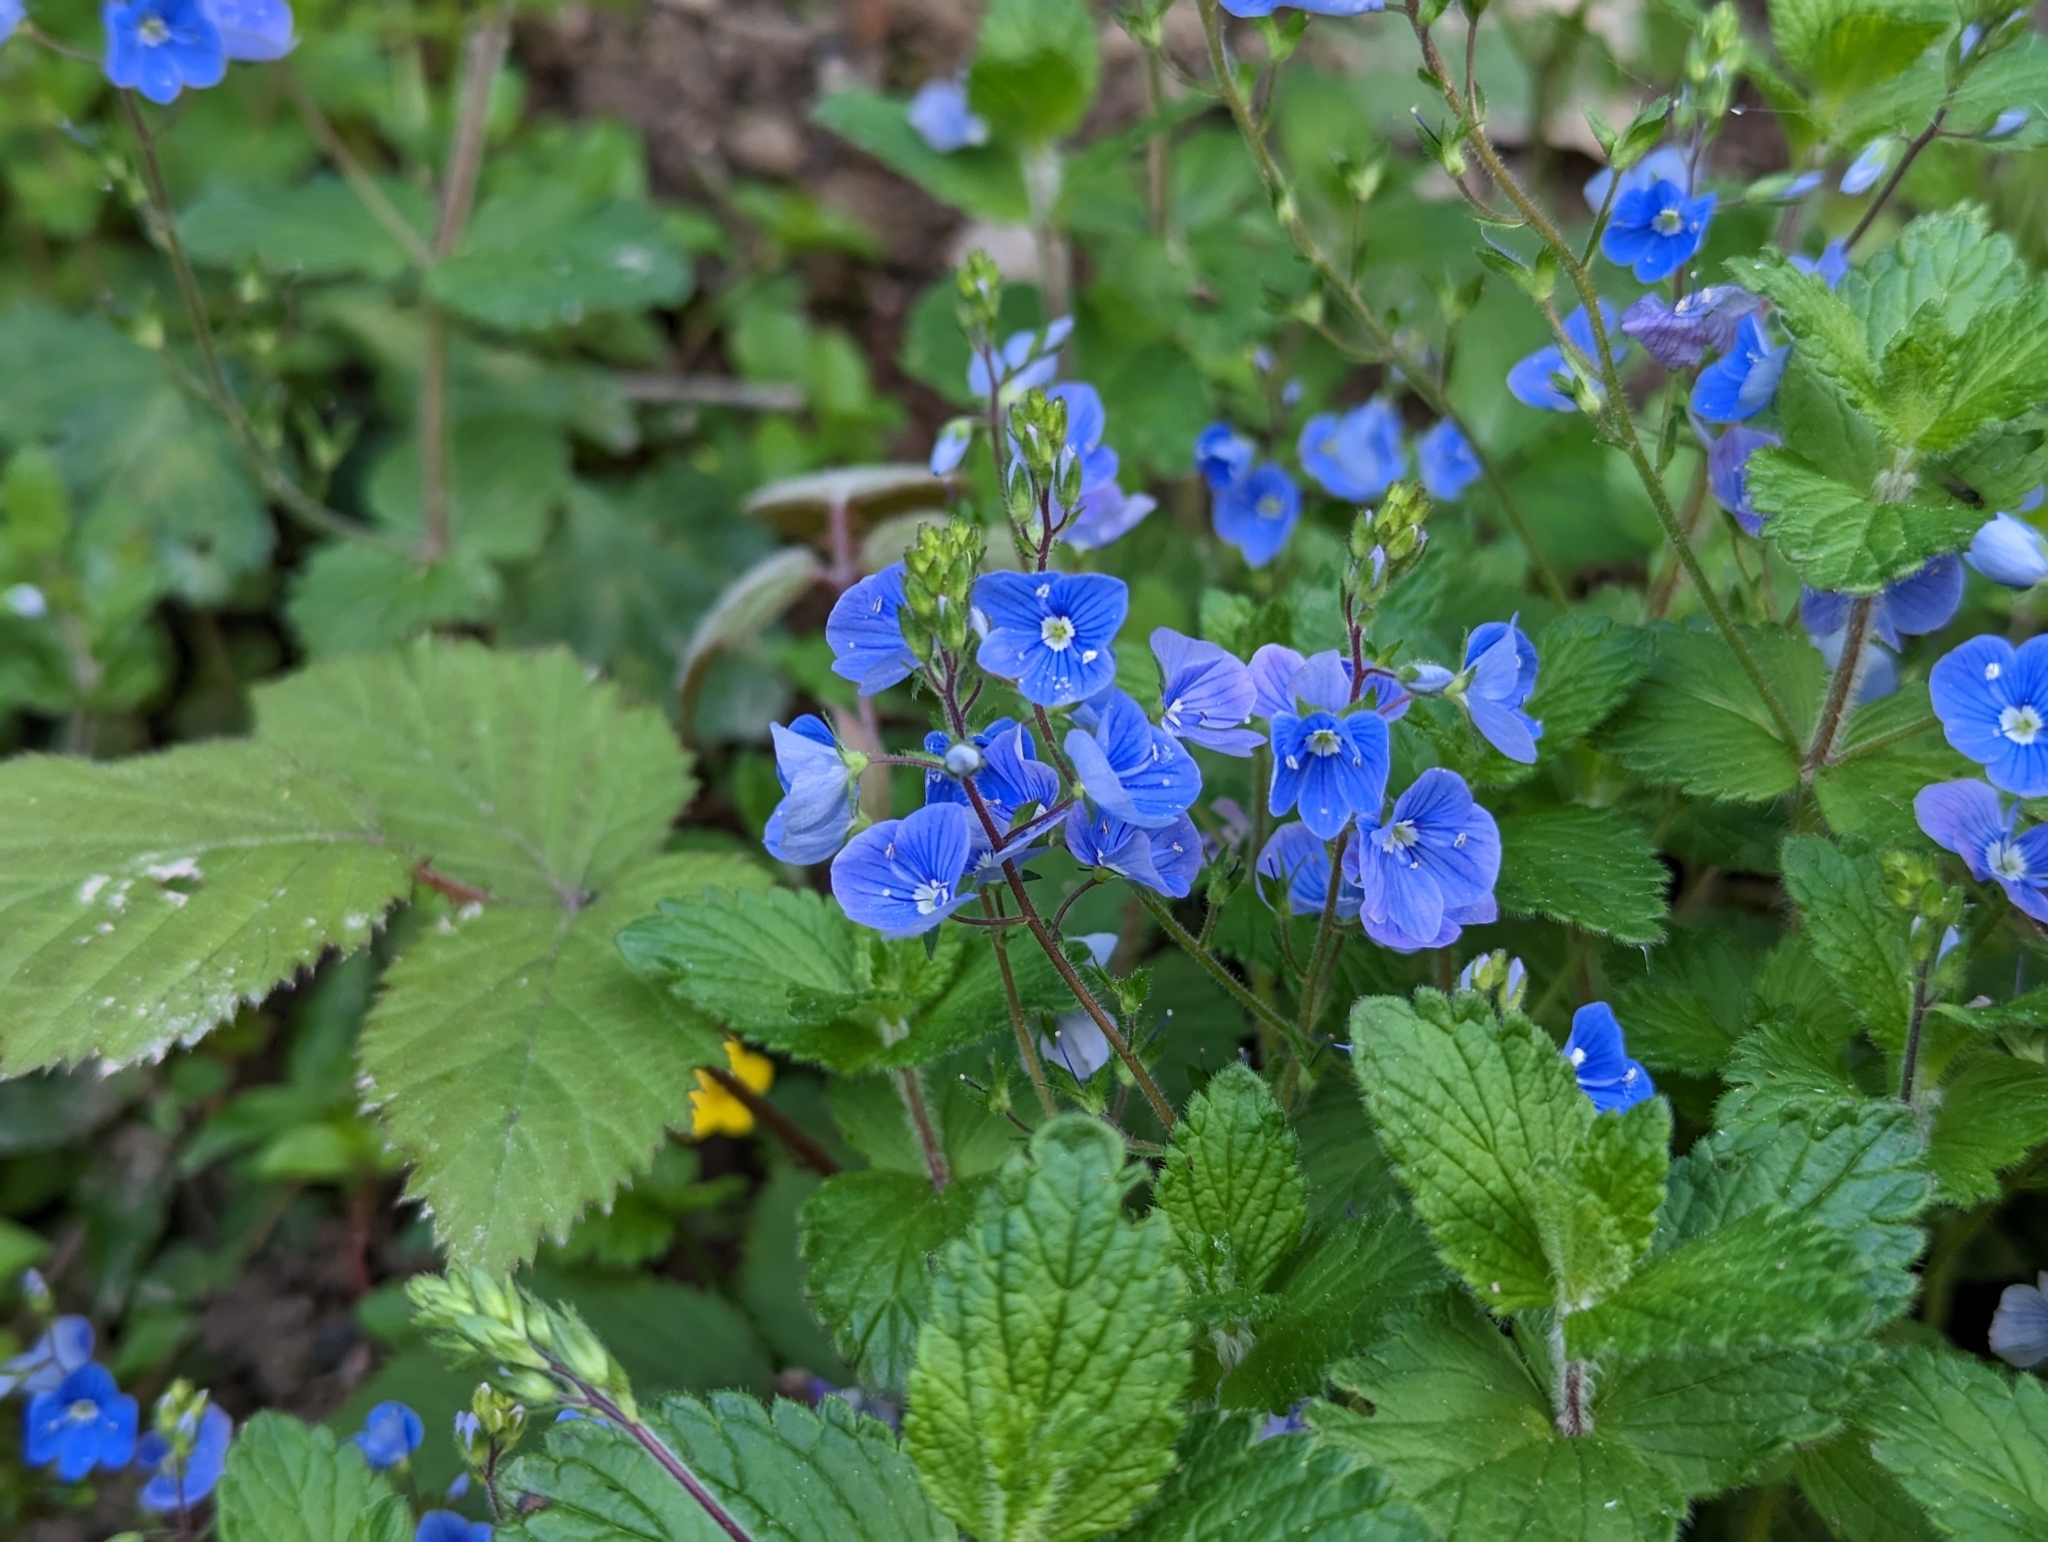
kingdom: Plantae
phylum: Tracheophyta
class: Magnoliopsida
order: Lamiales
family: Plantaginaceae
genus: Veronica
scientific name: Veronica chamaedrys
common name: Germander speedwell
